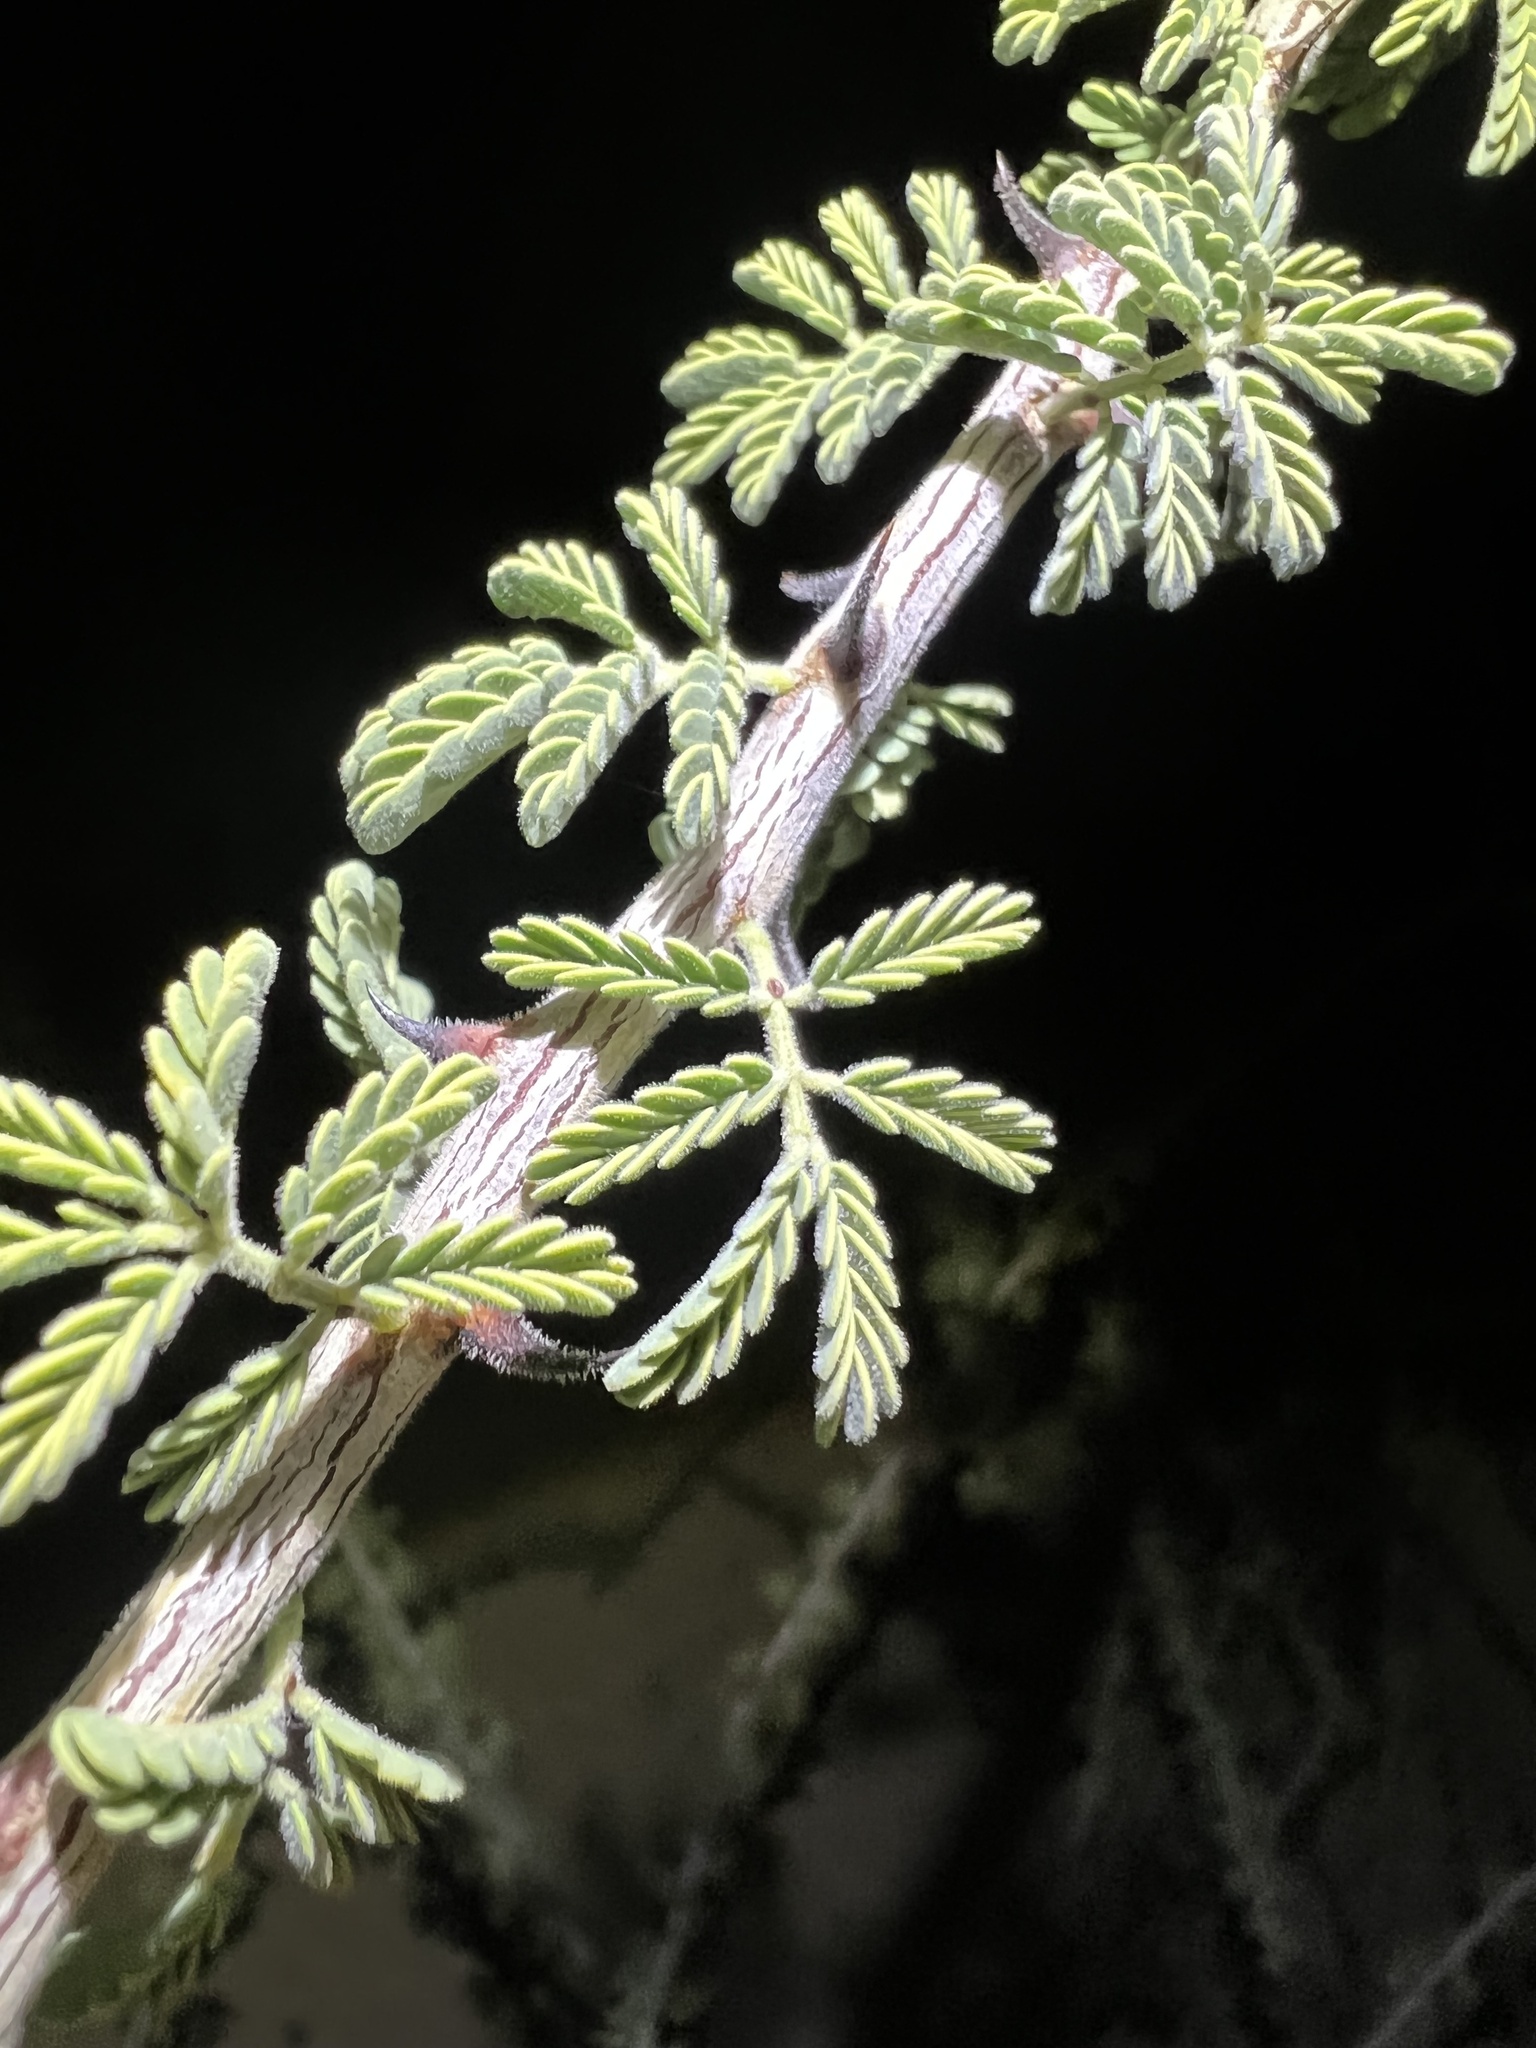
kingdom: Plantae
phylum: Tracheophyta
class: Magnoliopsida
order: Fabales
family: Fabaceae
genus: Senegalia
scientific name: Senegalia greggii
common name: Texas-mimosa
